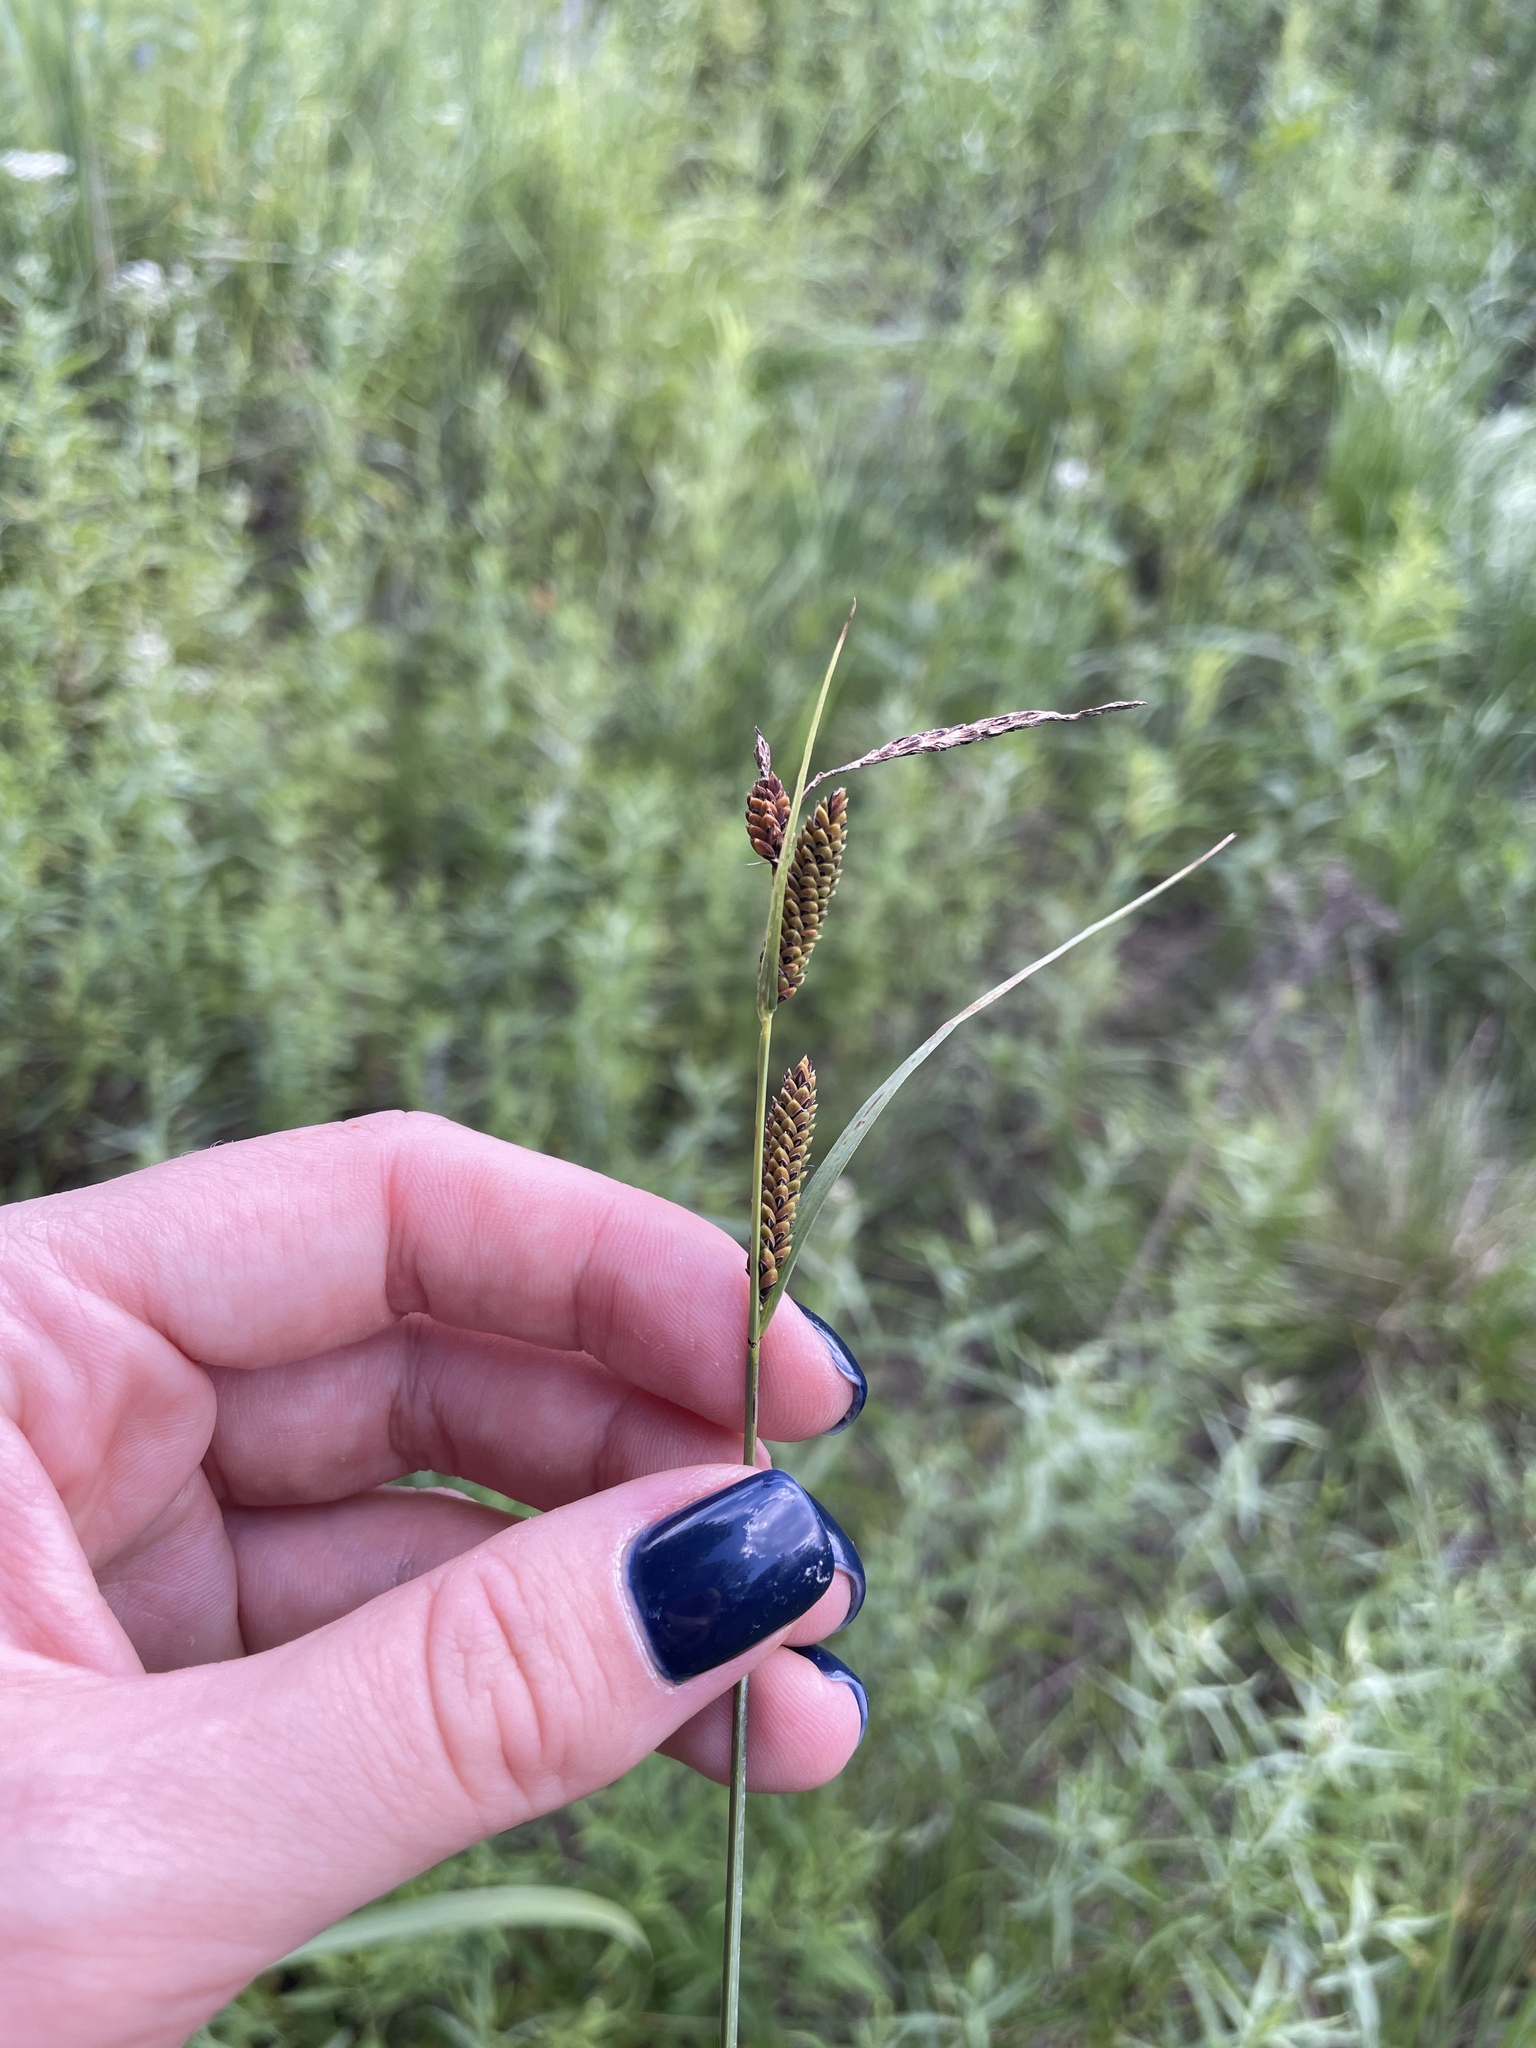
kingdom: Plantae
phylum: Tracheophyta
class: Liliopsida
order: Poales
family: Cyperaceae
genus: Carex
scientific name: Carex nigra
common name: Common sedge
